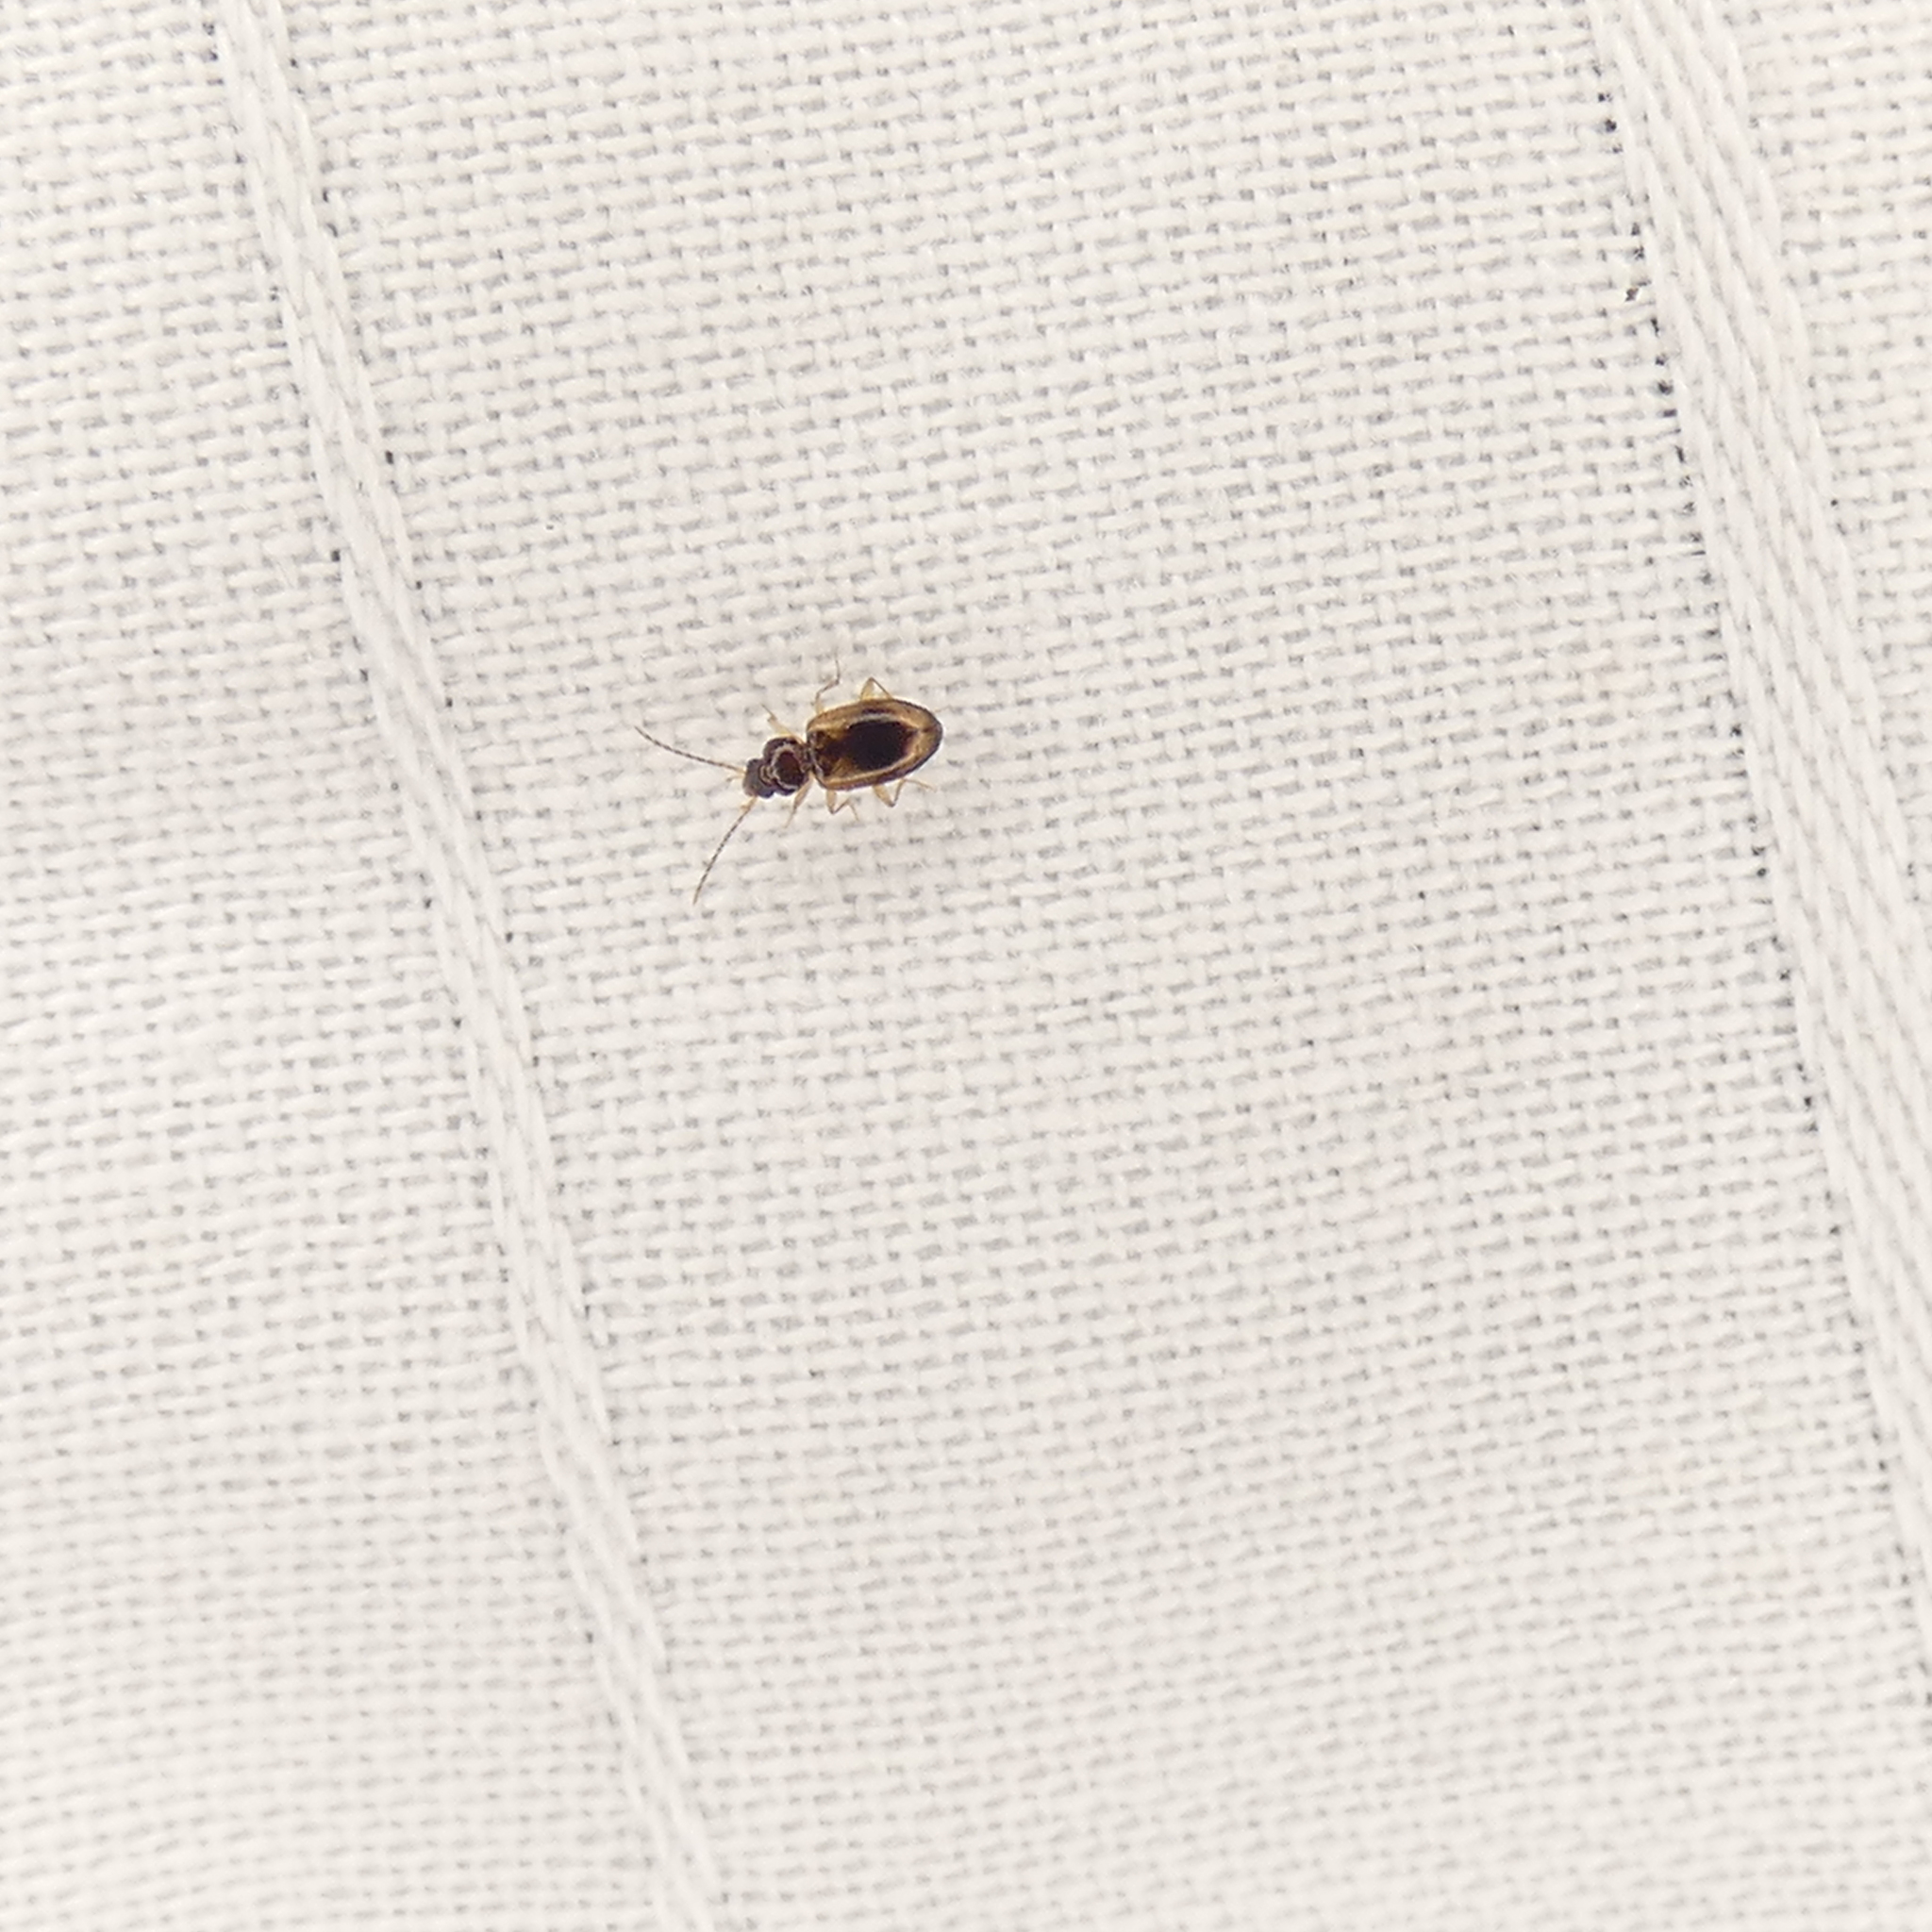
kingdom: Animalia
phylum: Arthropoda
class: Insecta
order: Coleoptera
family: Carabidae
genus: Tachys
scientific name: Tachys proximus
